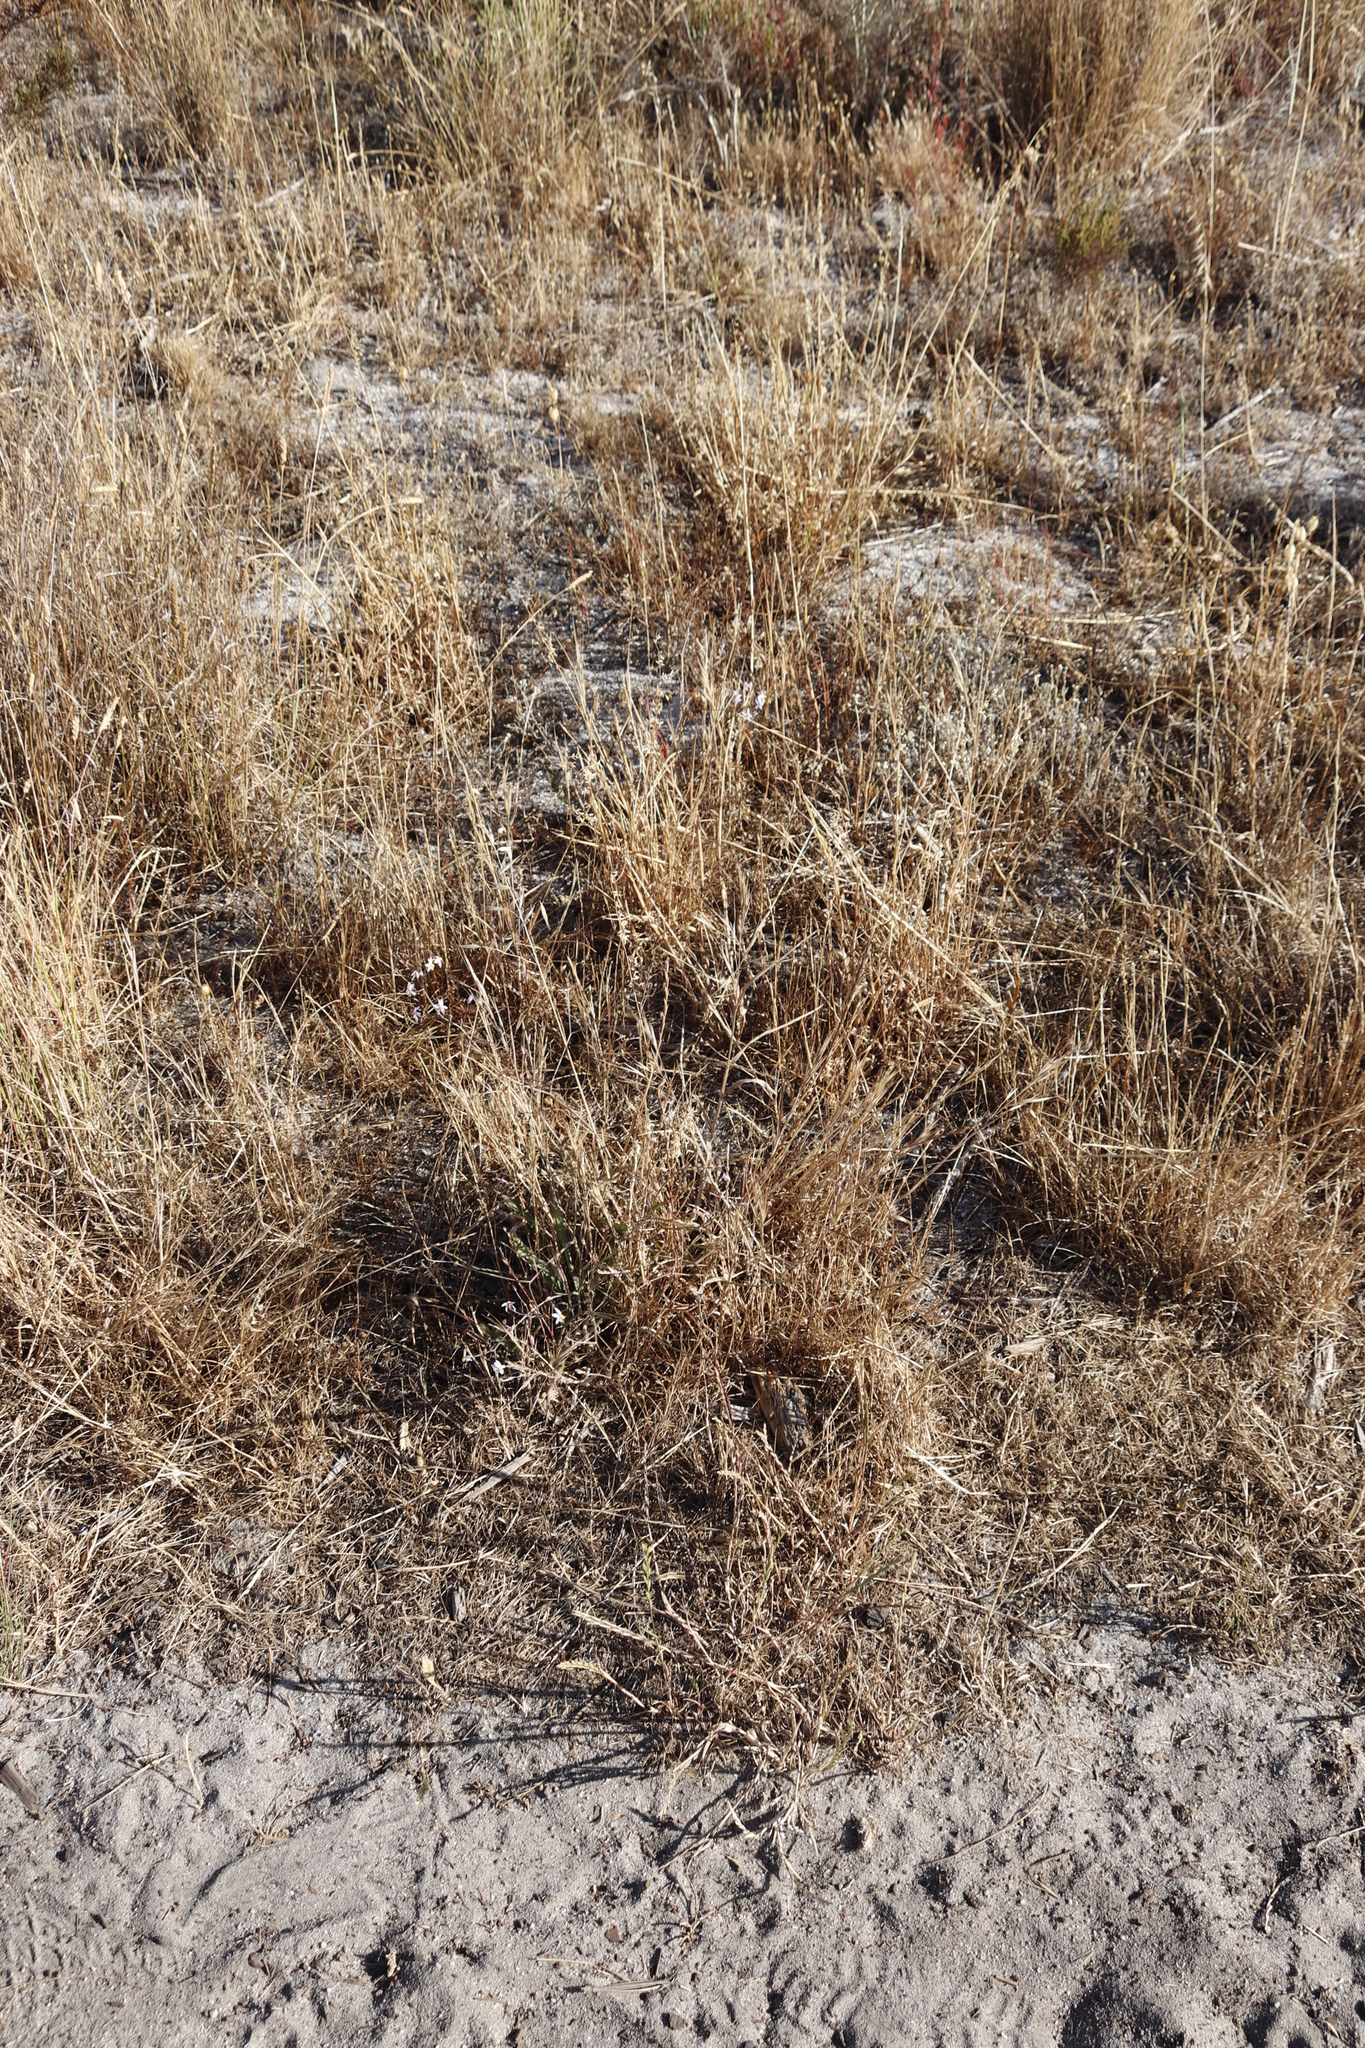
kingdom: Plantae
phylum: Tracheophyta
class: Liliopsida
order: Asparagales
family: Tecophilaeaceae
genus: Cyanella
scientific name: Cyanella hyacinthoides
